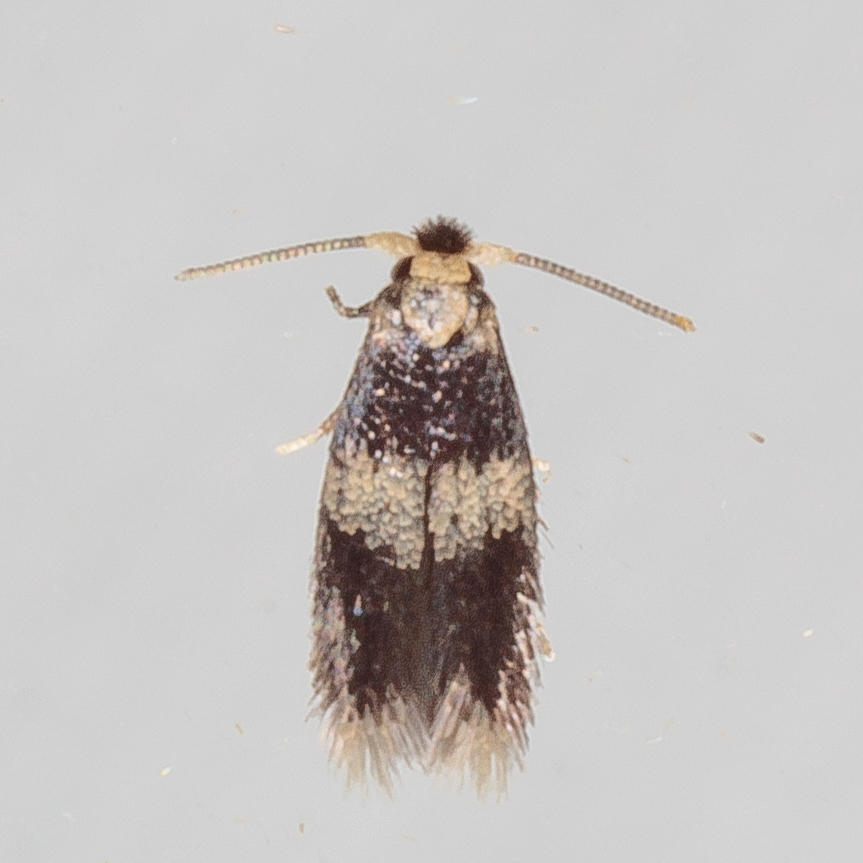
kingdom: Animalia
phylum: Arthropoda
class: Insecta
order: Lepidoptera
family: Nepticulidae
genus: Stigmella
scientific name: Stigmella nigriverticella
